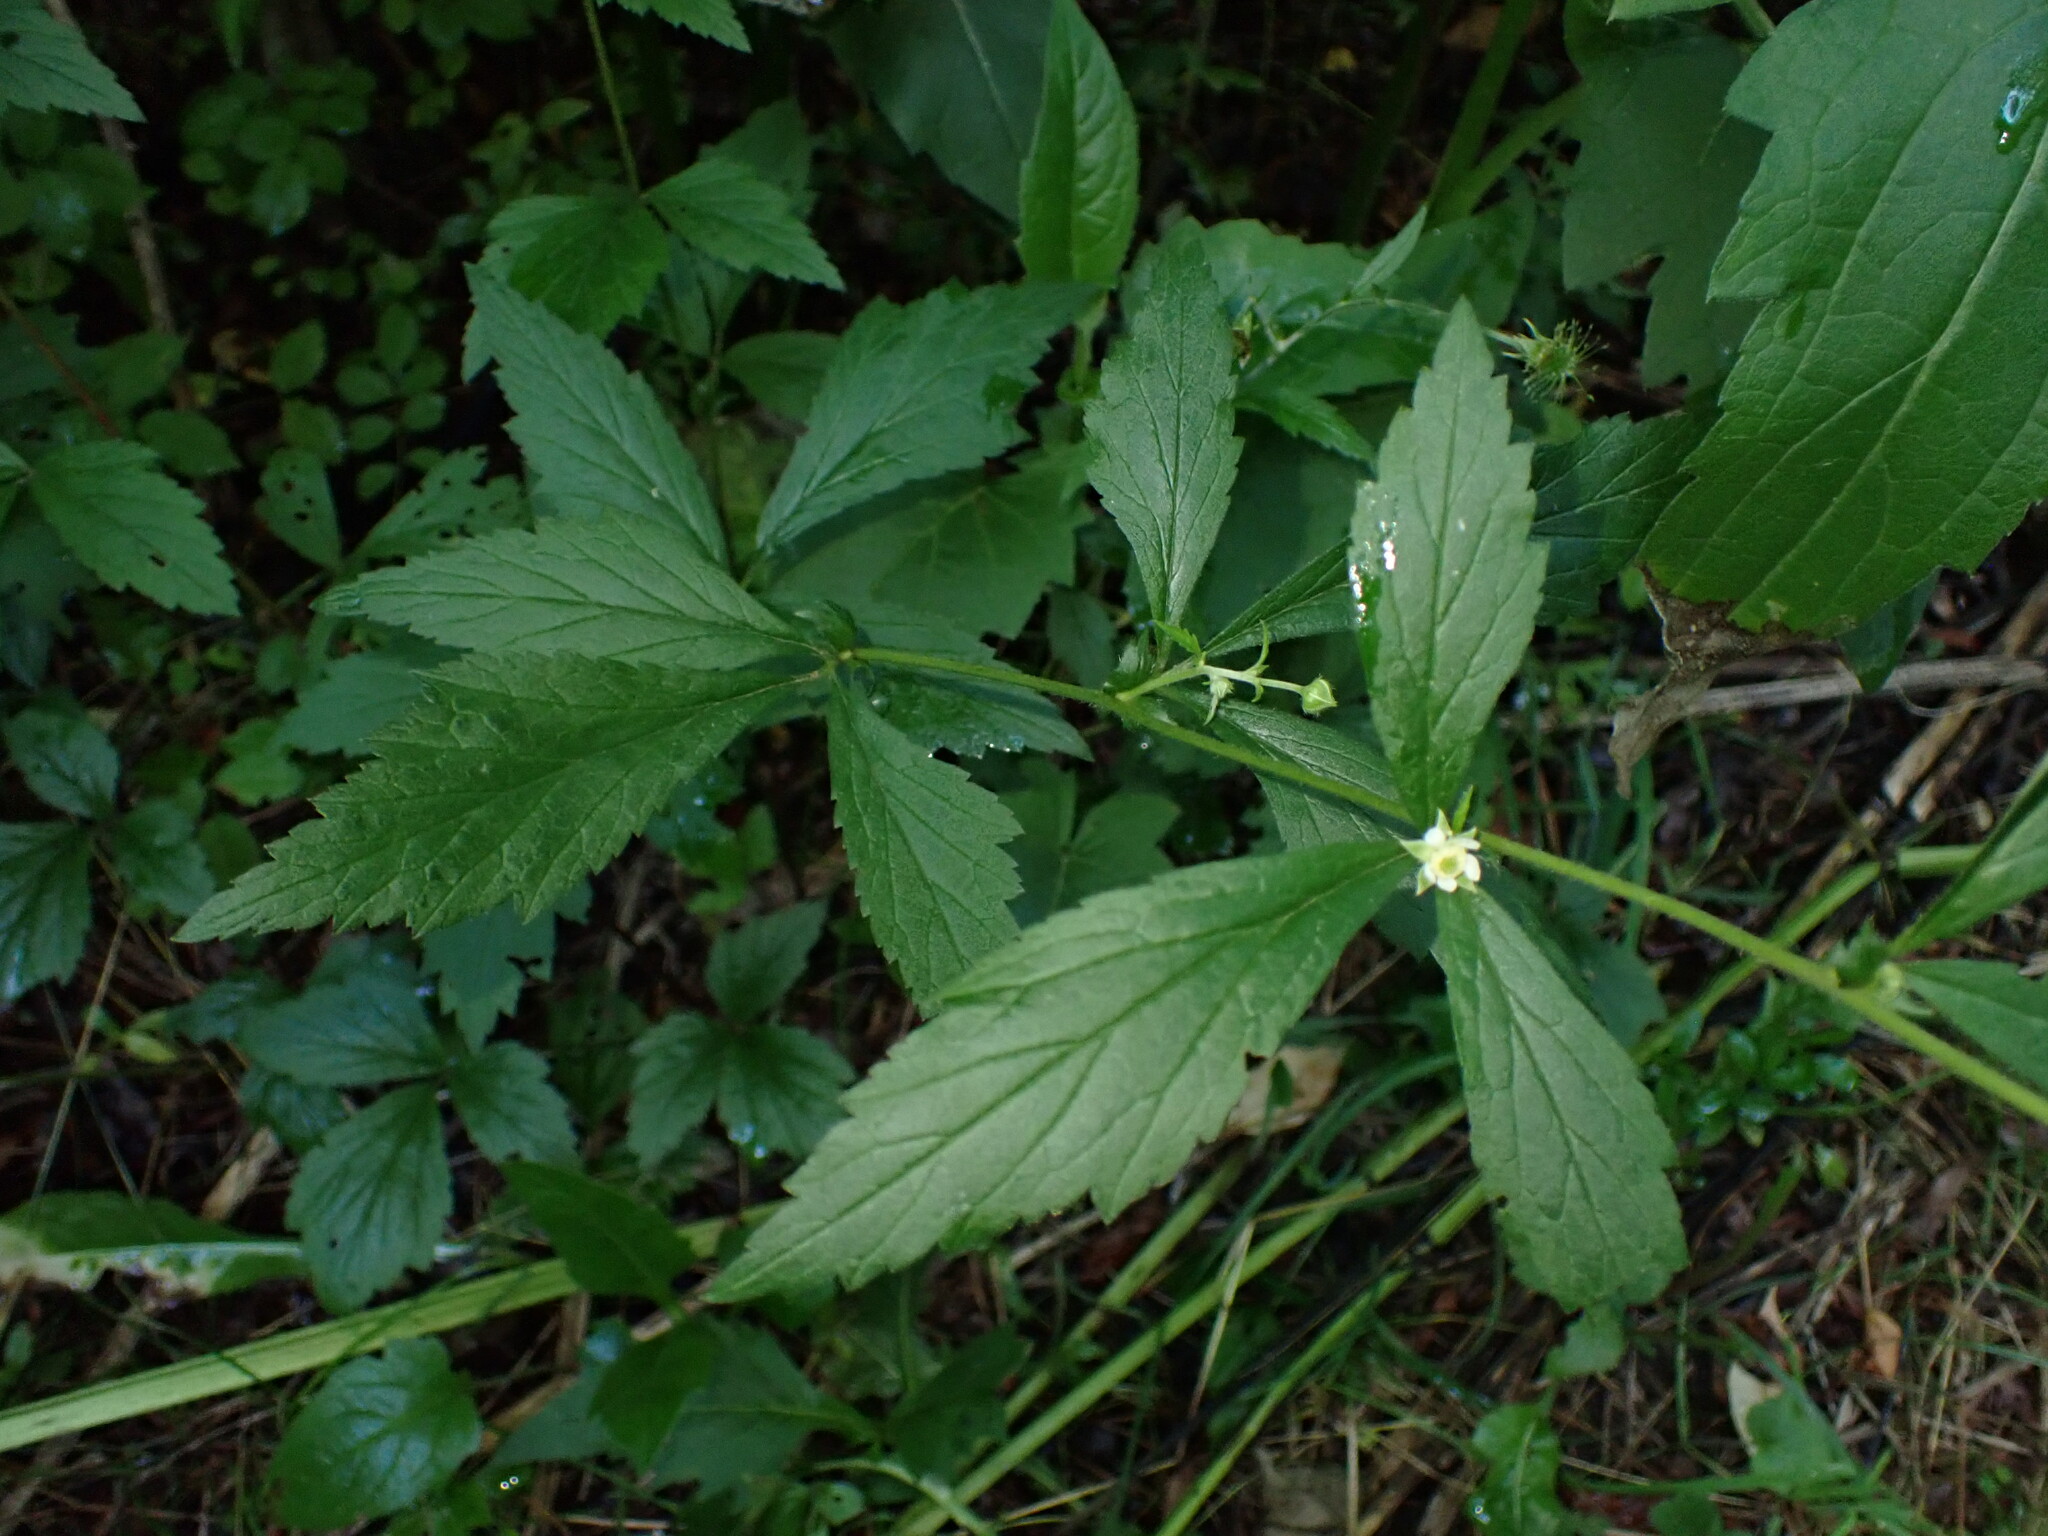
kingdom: Plantae
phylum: Tracheophyta
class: Magnoliopsida
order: Rosales
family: Rosaceae
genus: Geum
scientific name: Geum canadense
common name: White avens
